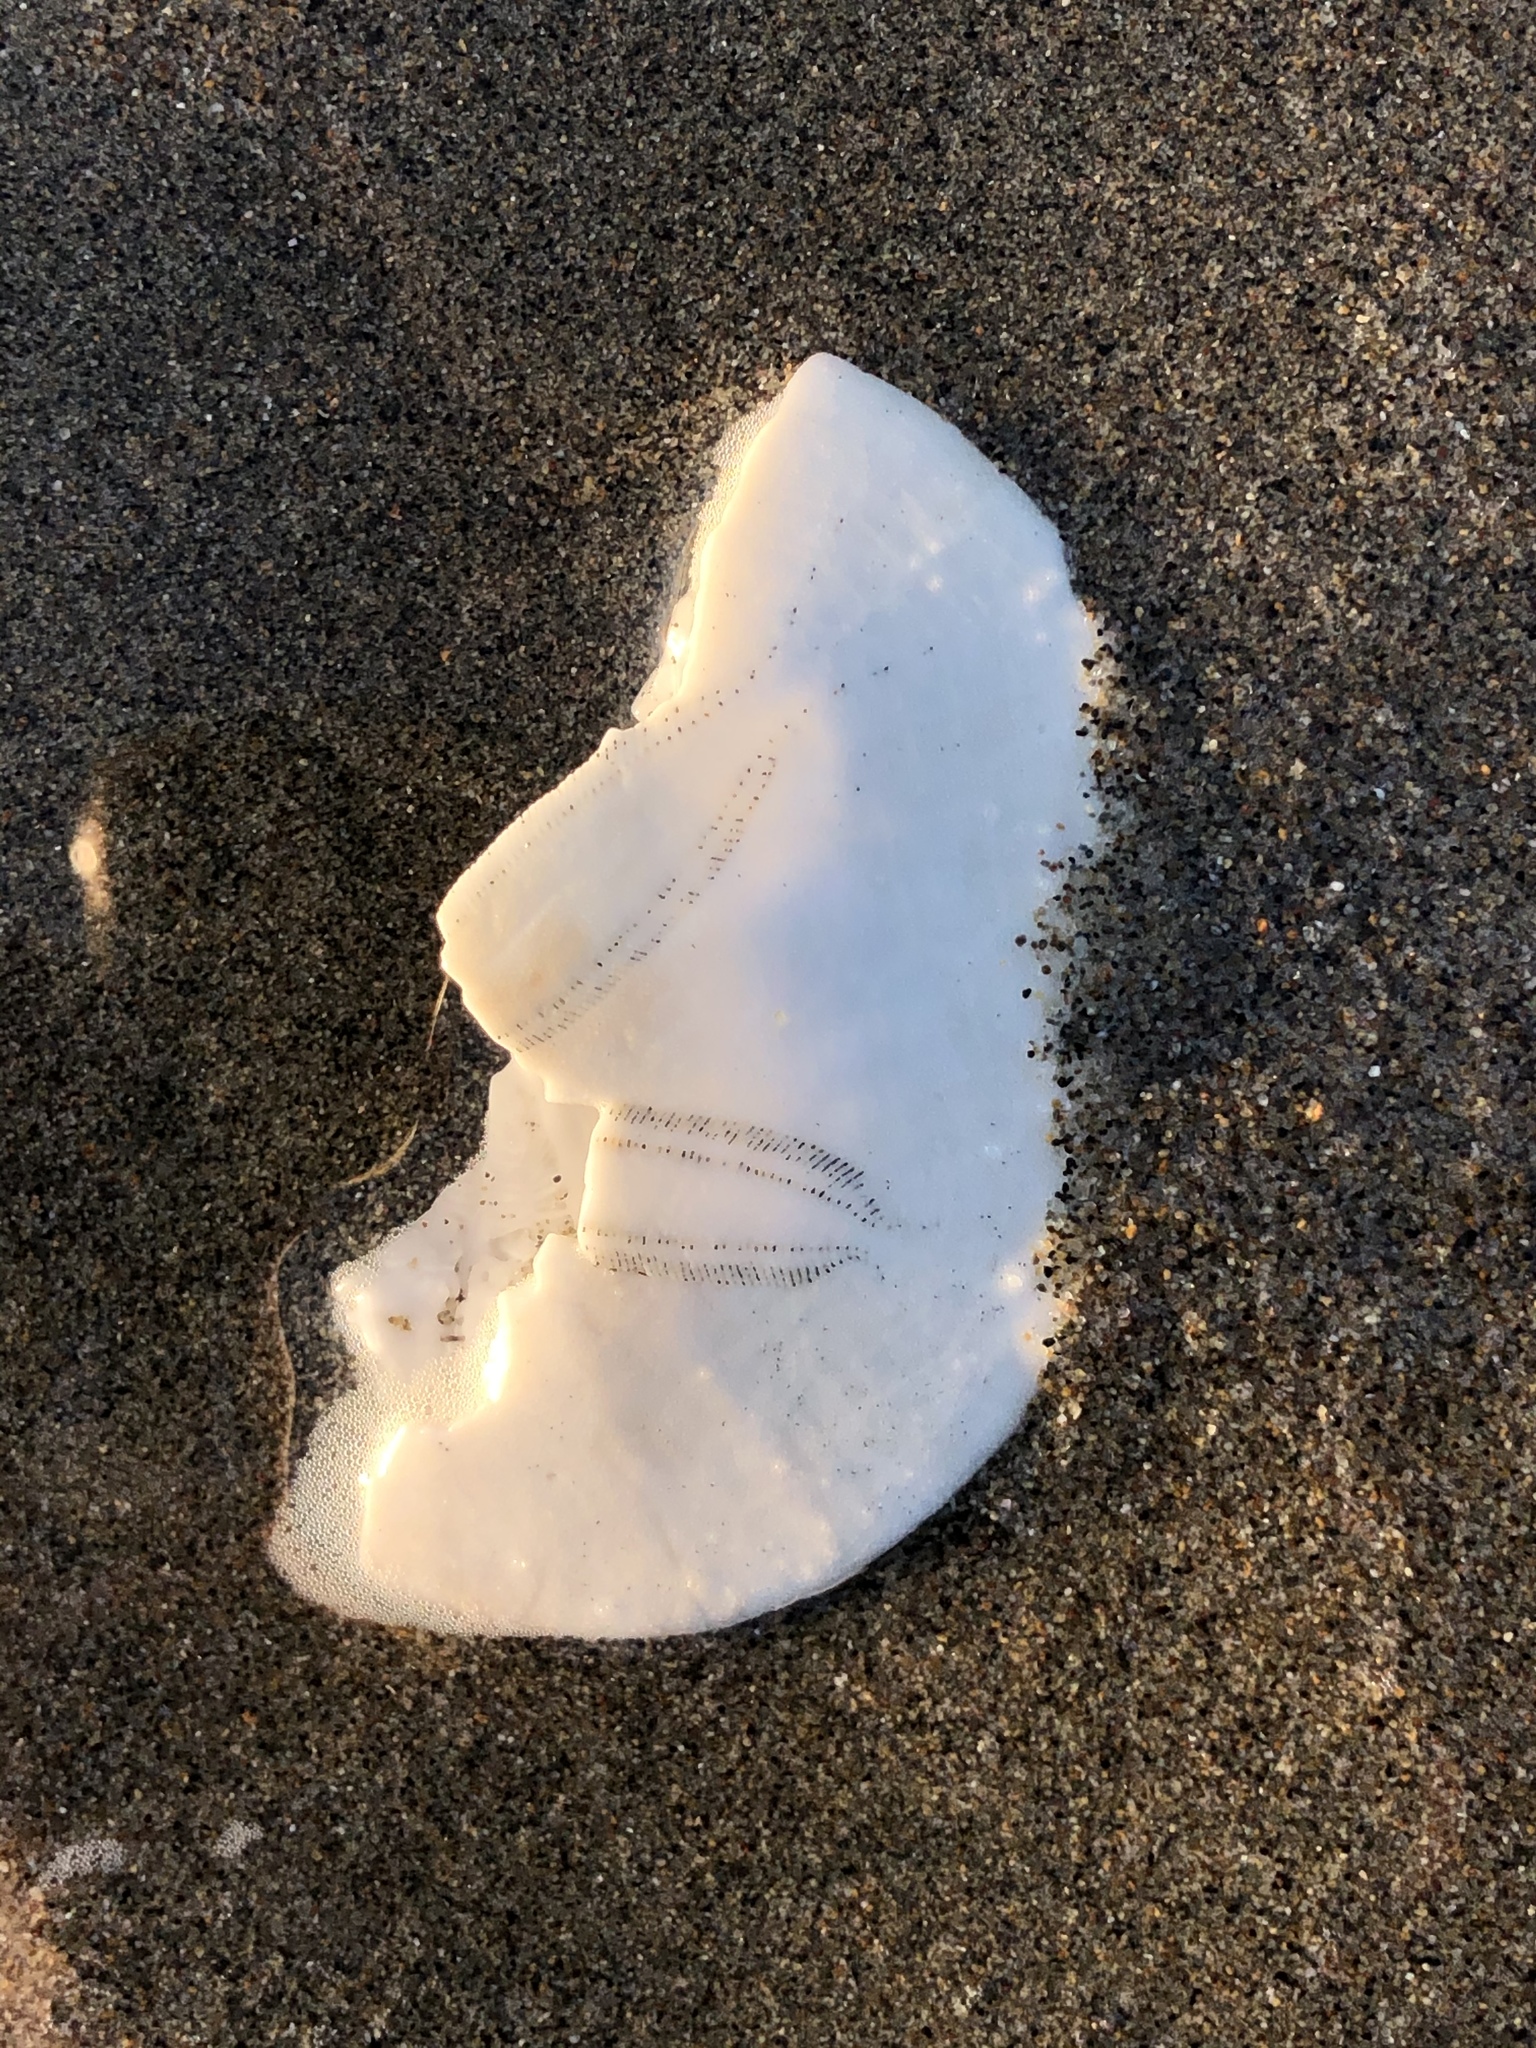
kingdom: Animalia
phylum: Echinodermata
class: Echinoidea
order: Echinolampadacea
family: Dendrasteridae
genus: Dendraster
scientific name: Dendraster excentricus
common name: Eccentric sand dollar sea urchin
